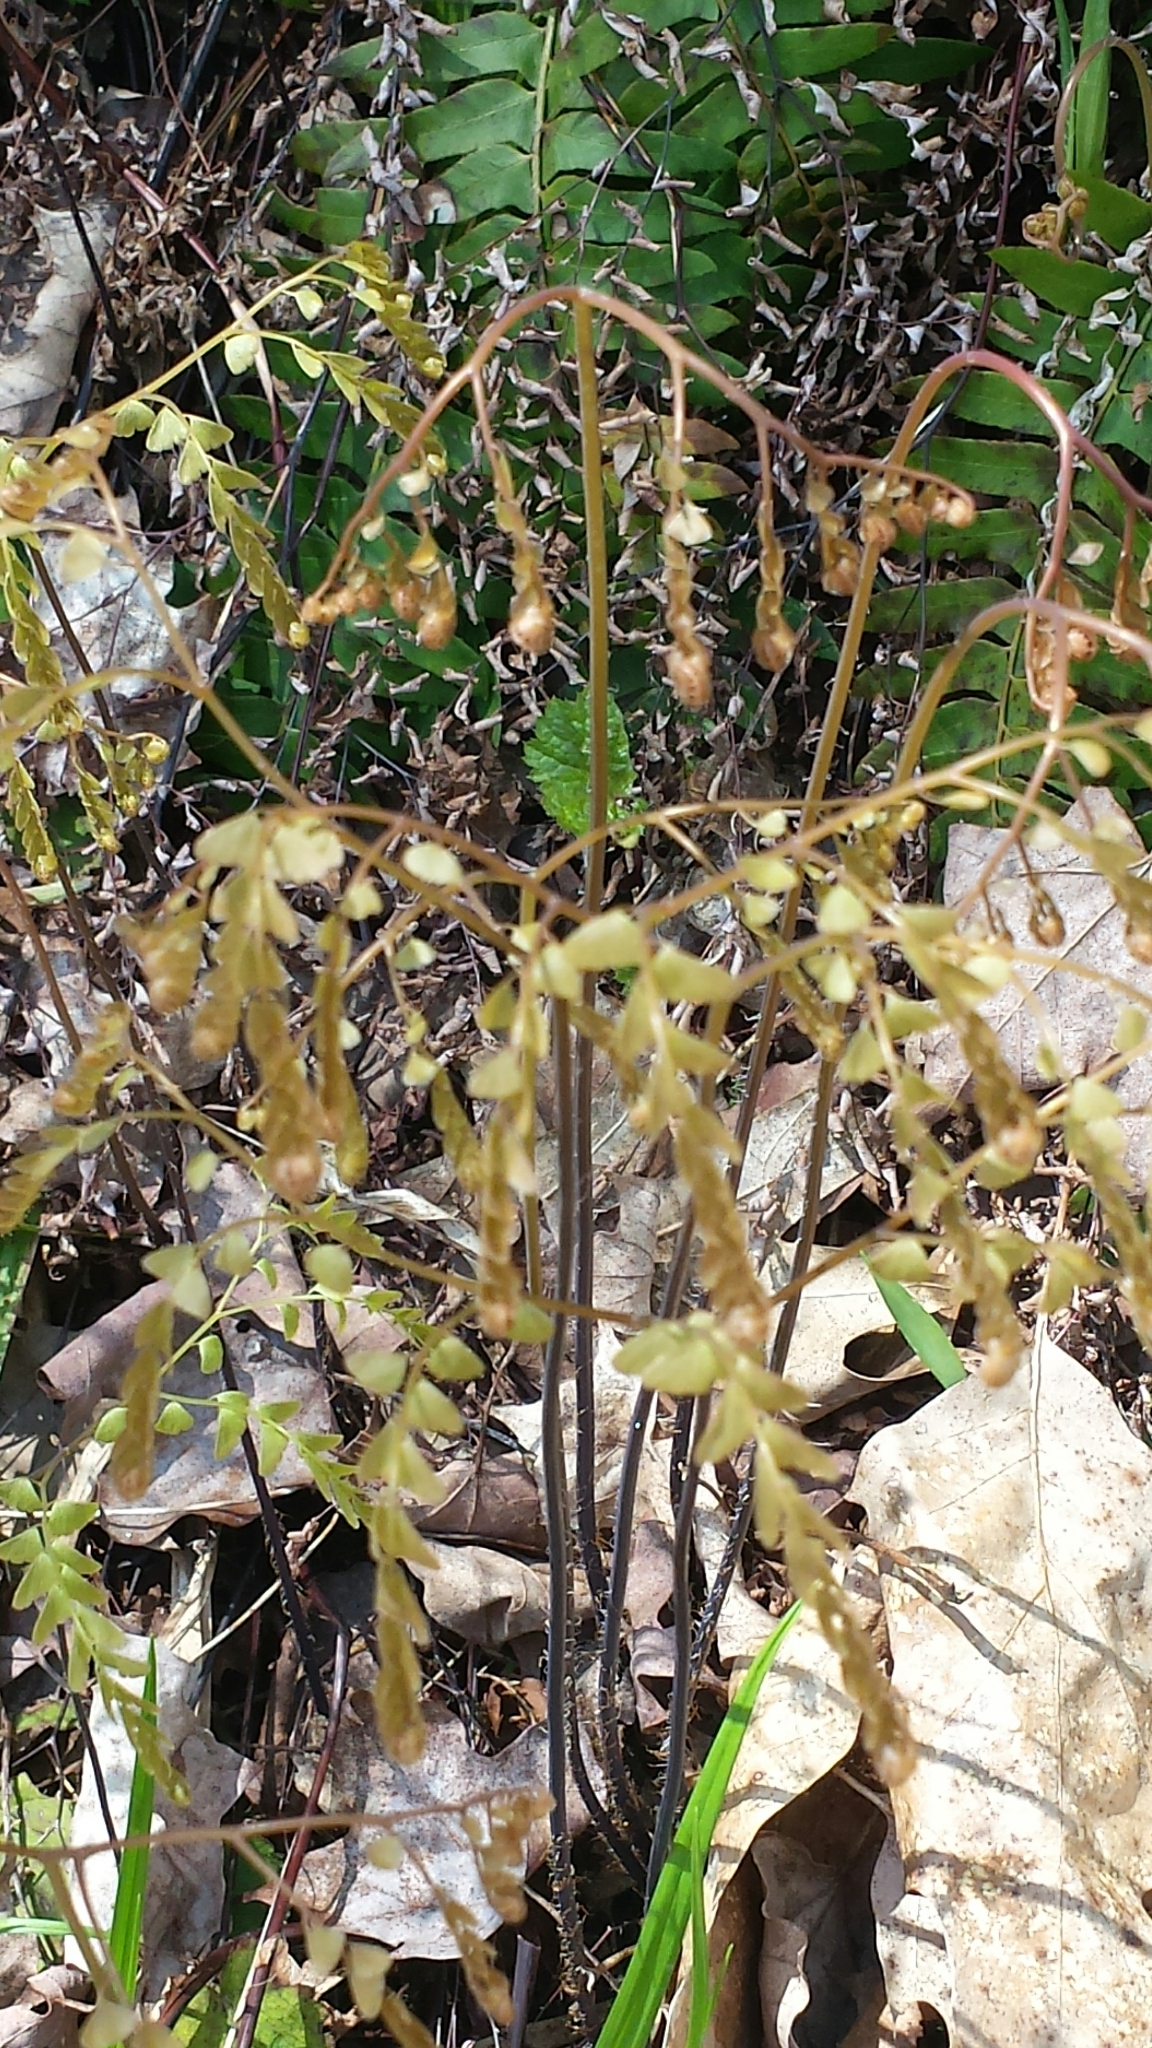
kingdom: Plantae
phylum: Tracheophyta
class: Polypodiopsida
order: Polypodiales
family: Pteridaceae
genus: Adiantum
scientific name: Adiantum pedatum
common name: Five-finger fern
